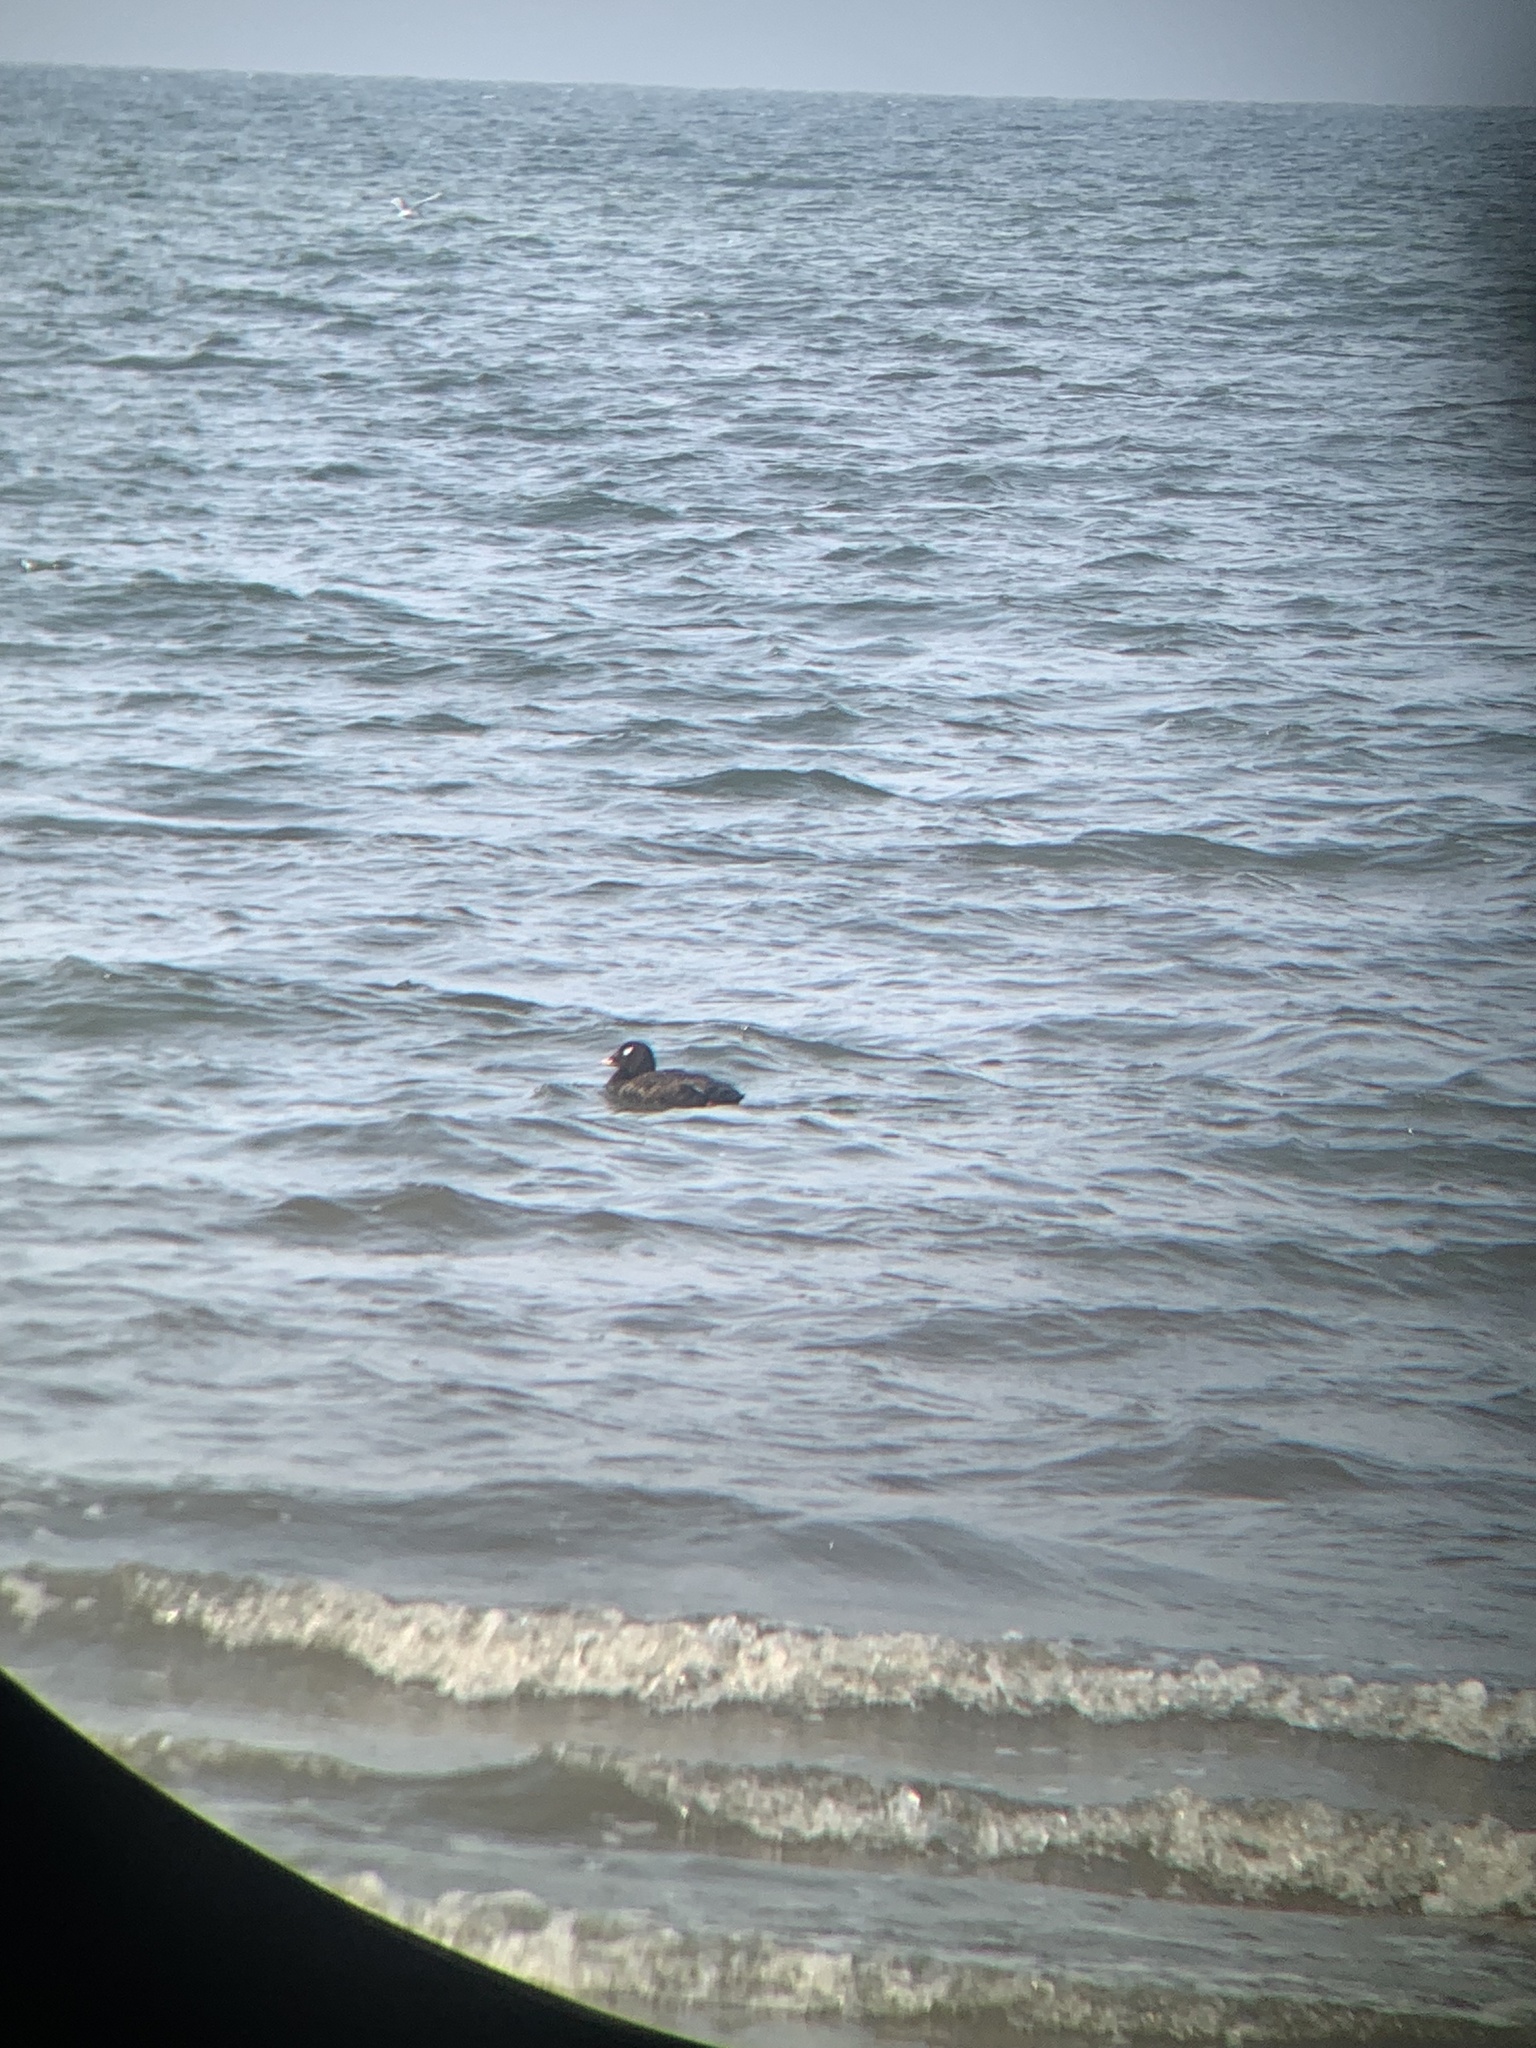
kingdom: Animalia
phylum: Chordata
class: Aves
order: Anseriformes
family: Anatidae
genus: Melanitta
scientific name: Melanitta deglandi
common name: White-winged scoter
